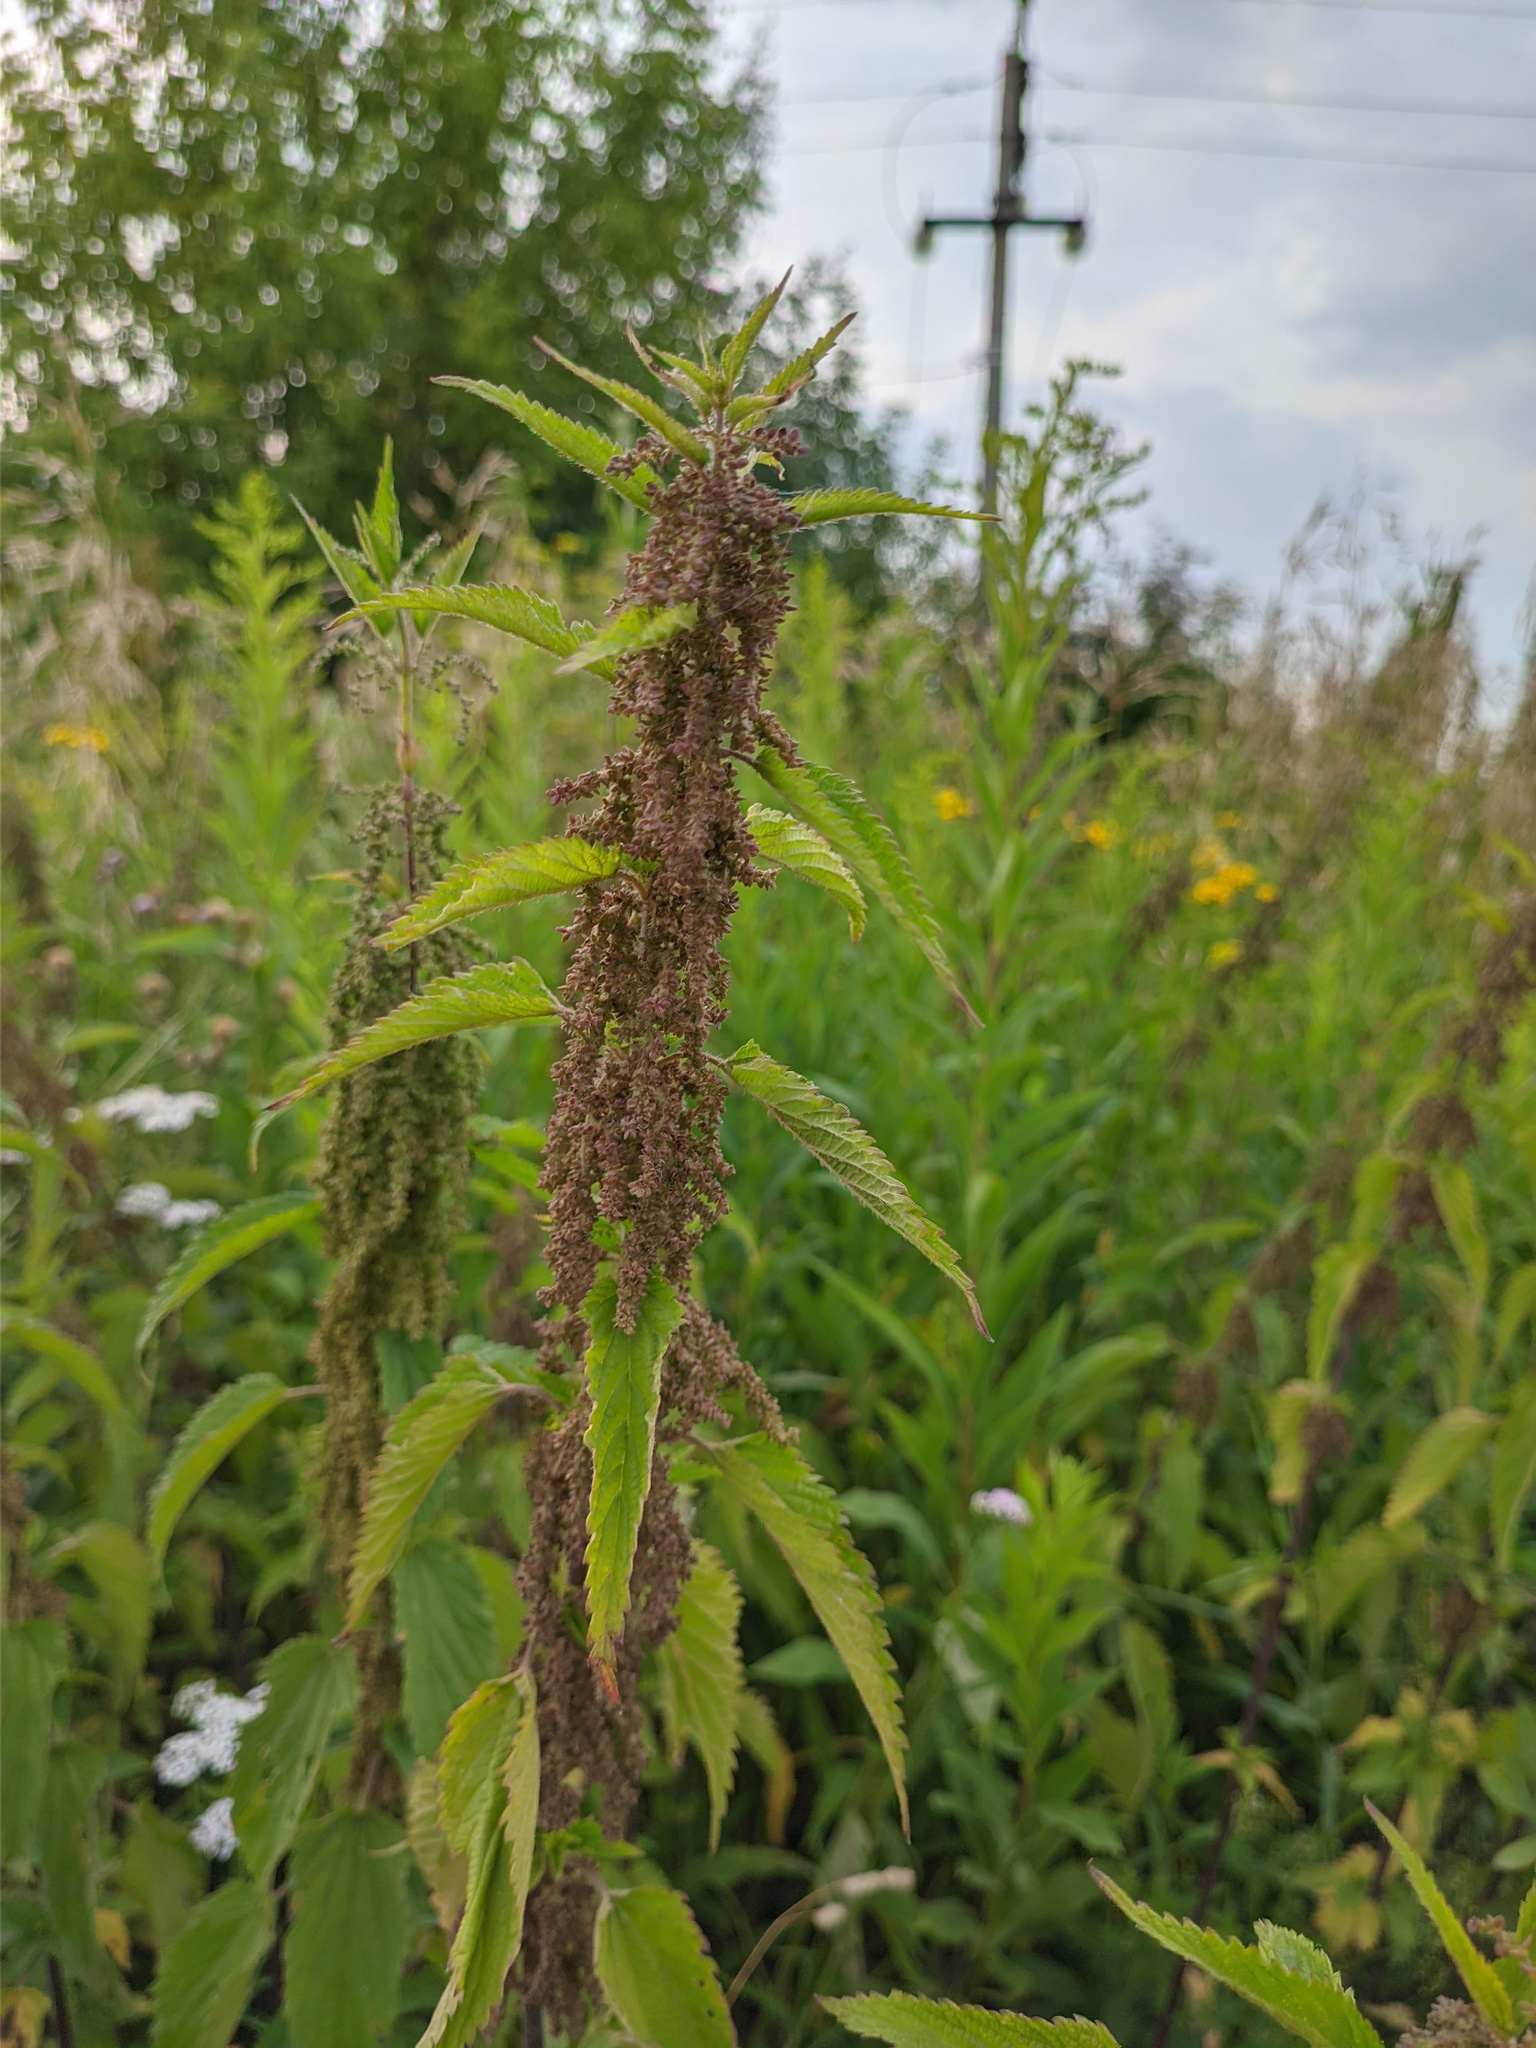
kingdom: Plantae
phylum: Tracheophyta
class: Magnoliopsida
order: Rosales
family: Urticaceae
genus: Urtica
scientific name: Urtica dioica
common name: Common nettle
